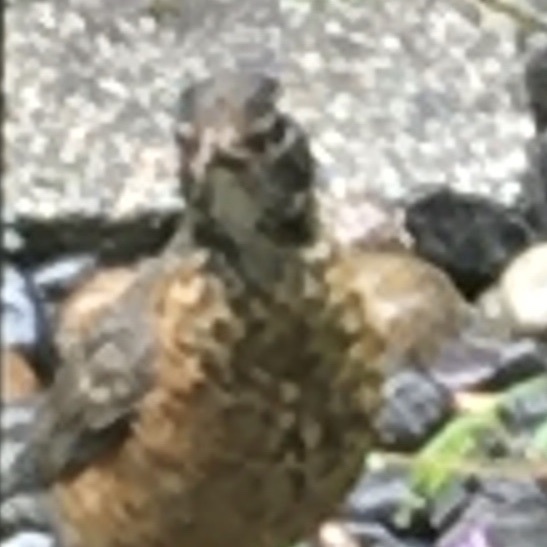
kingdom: Animalia
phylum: Chordata
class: Aves
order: Passeriformes
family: Turdidae
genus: Turdus
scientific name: Turdus migratorius
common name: American robin
